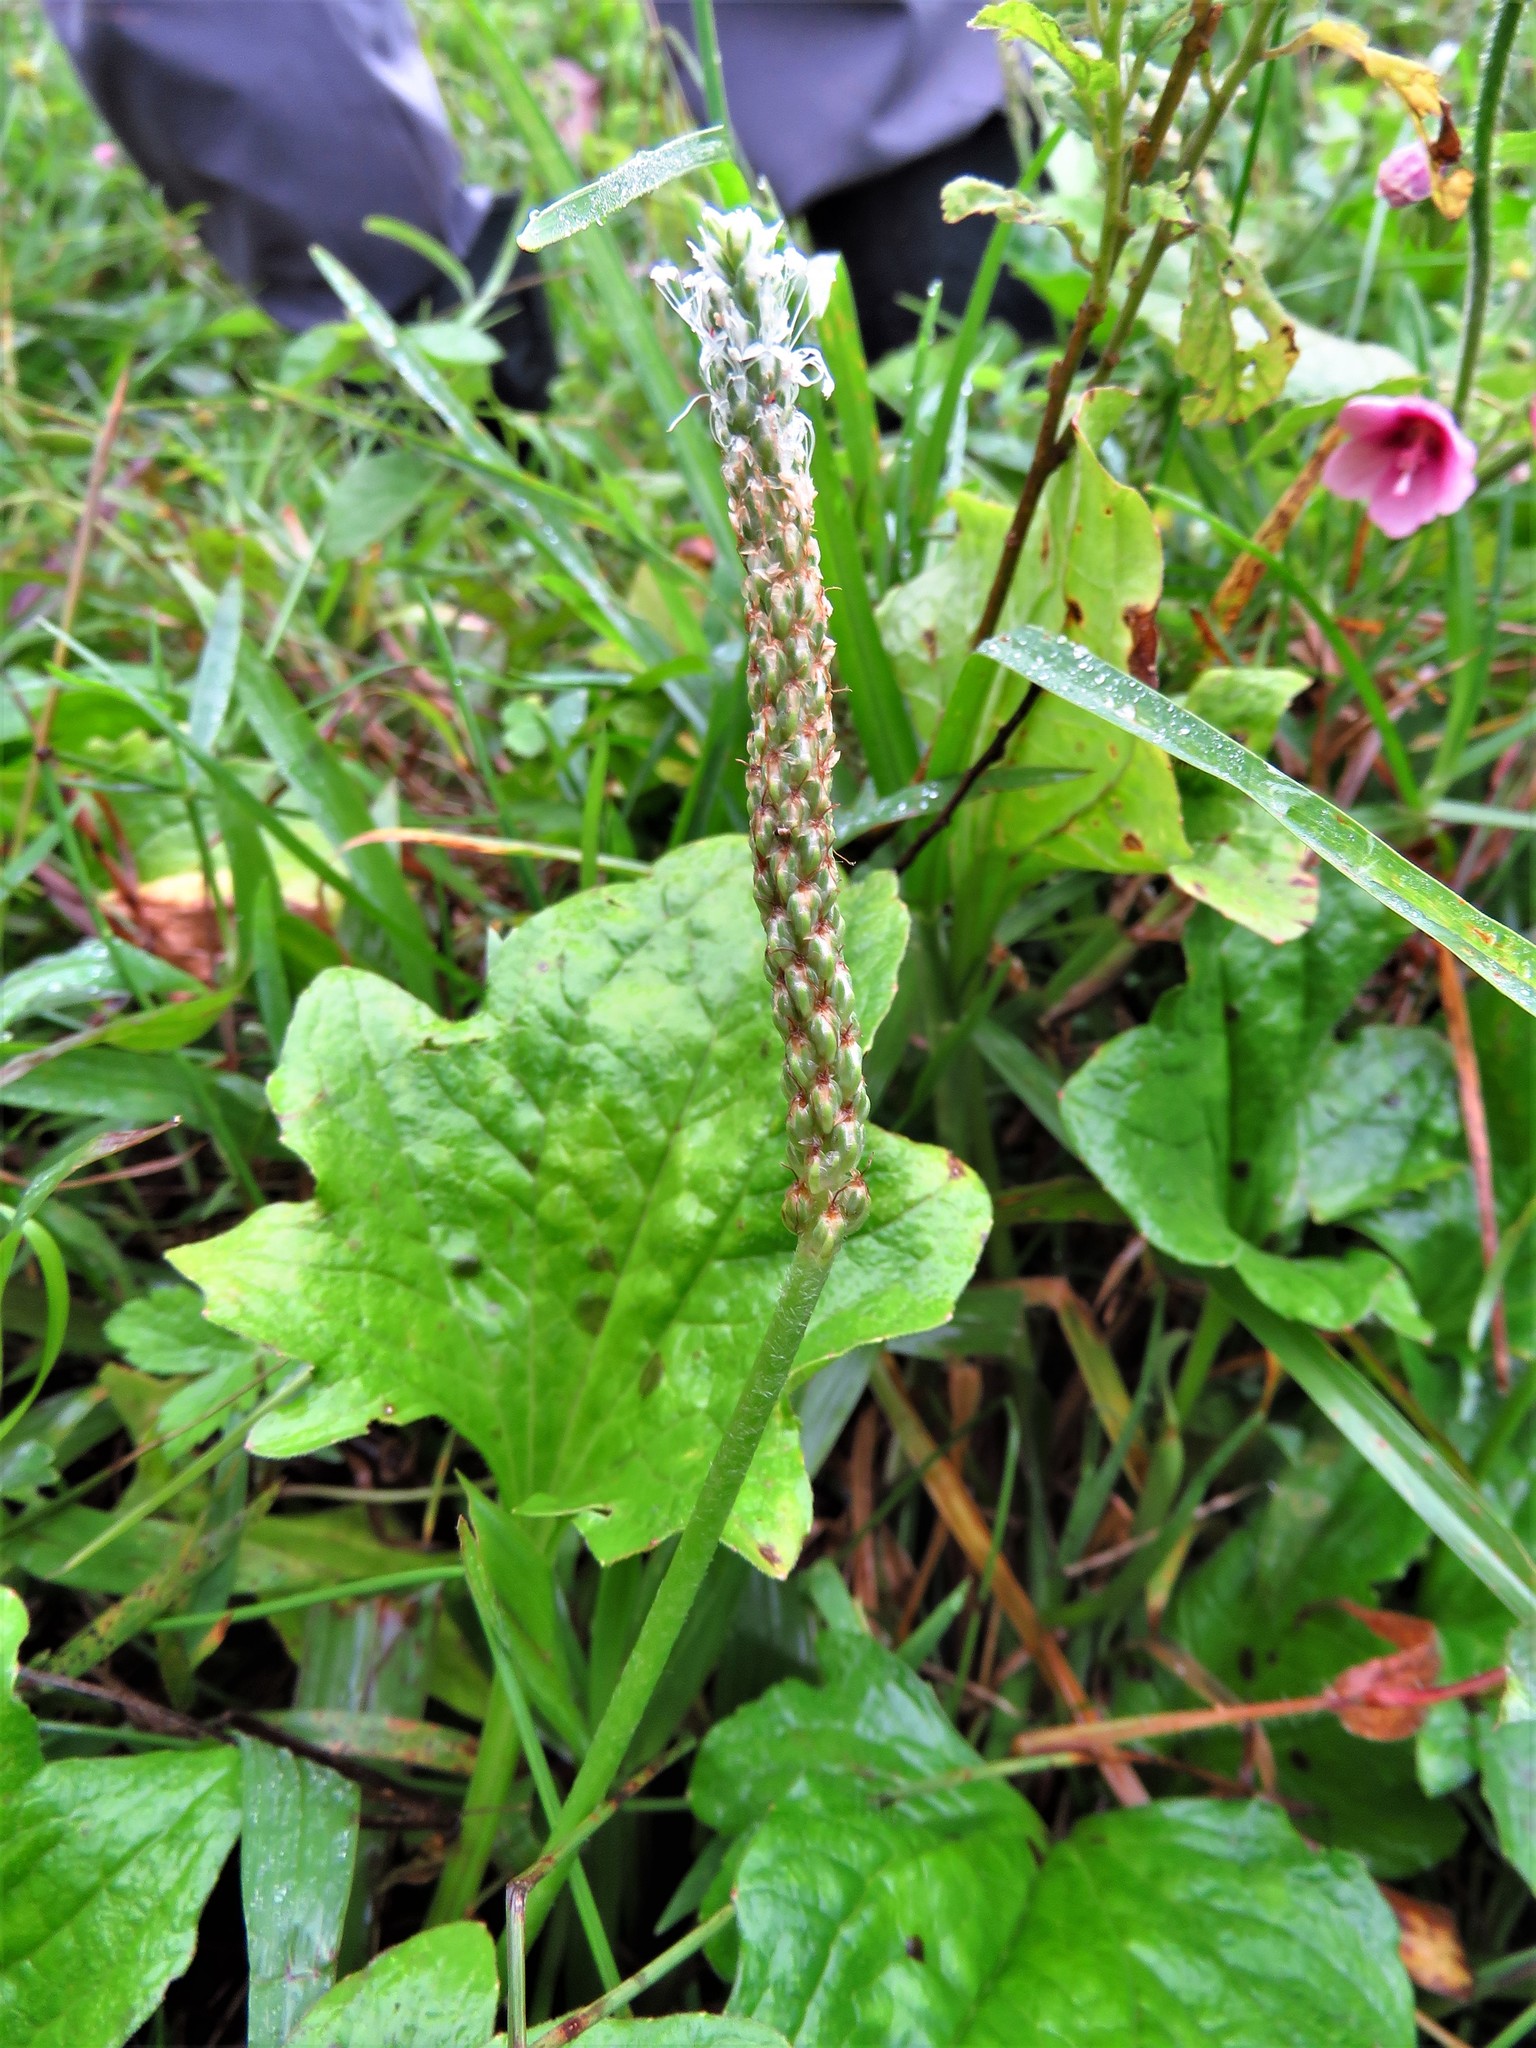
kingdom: Plantae
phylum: Tracheophyta
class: Magnoliopsida
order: Lamiales
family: Plantaginaceae
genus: Plantago
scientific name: Plantago palmata
